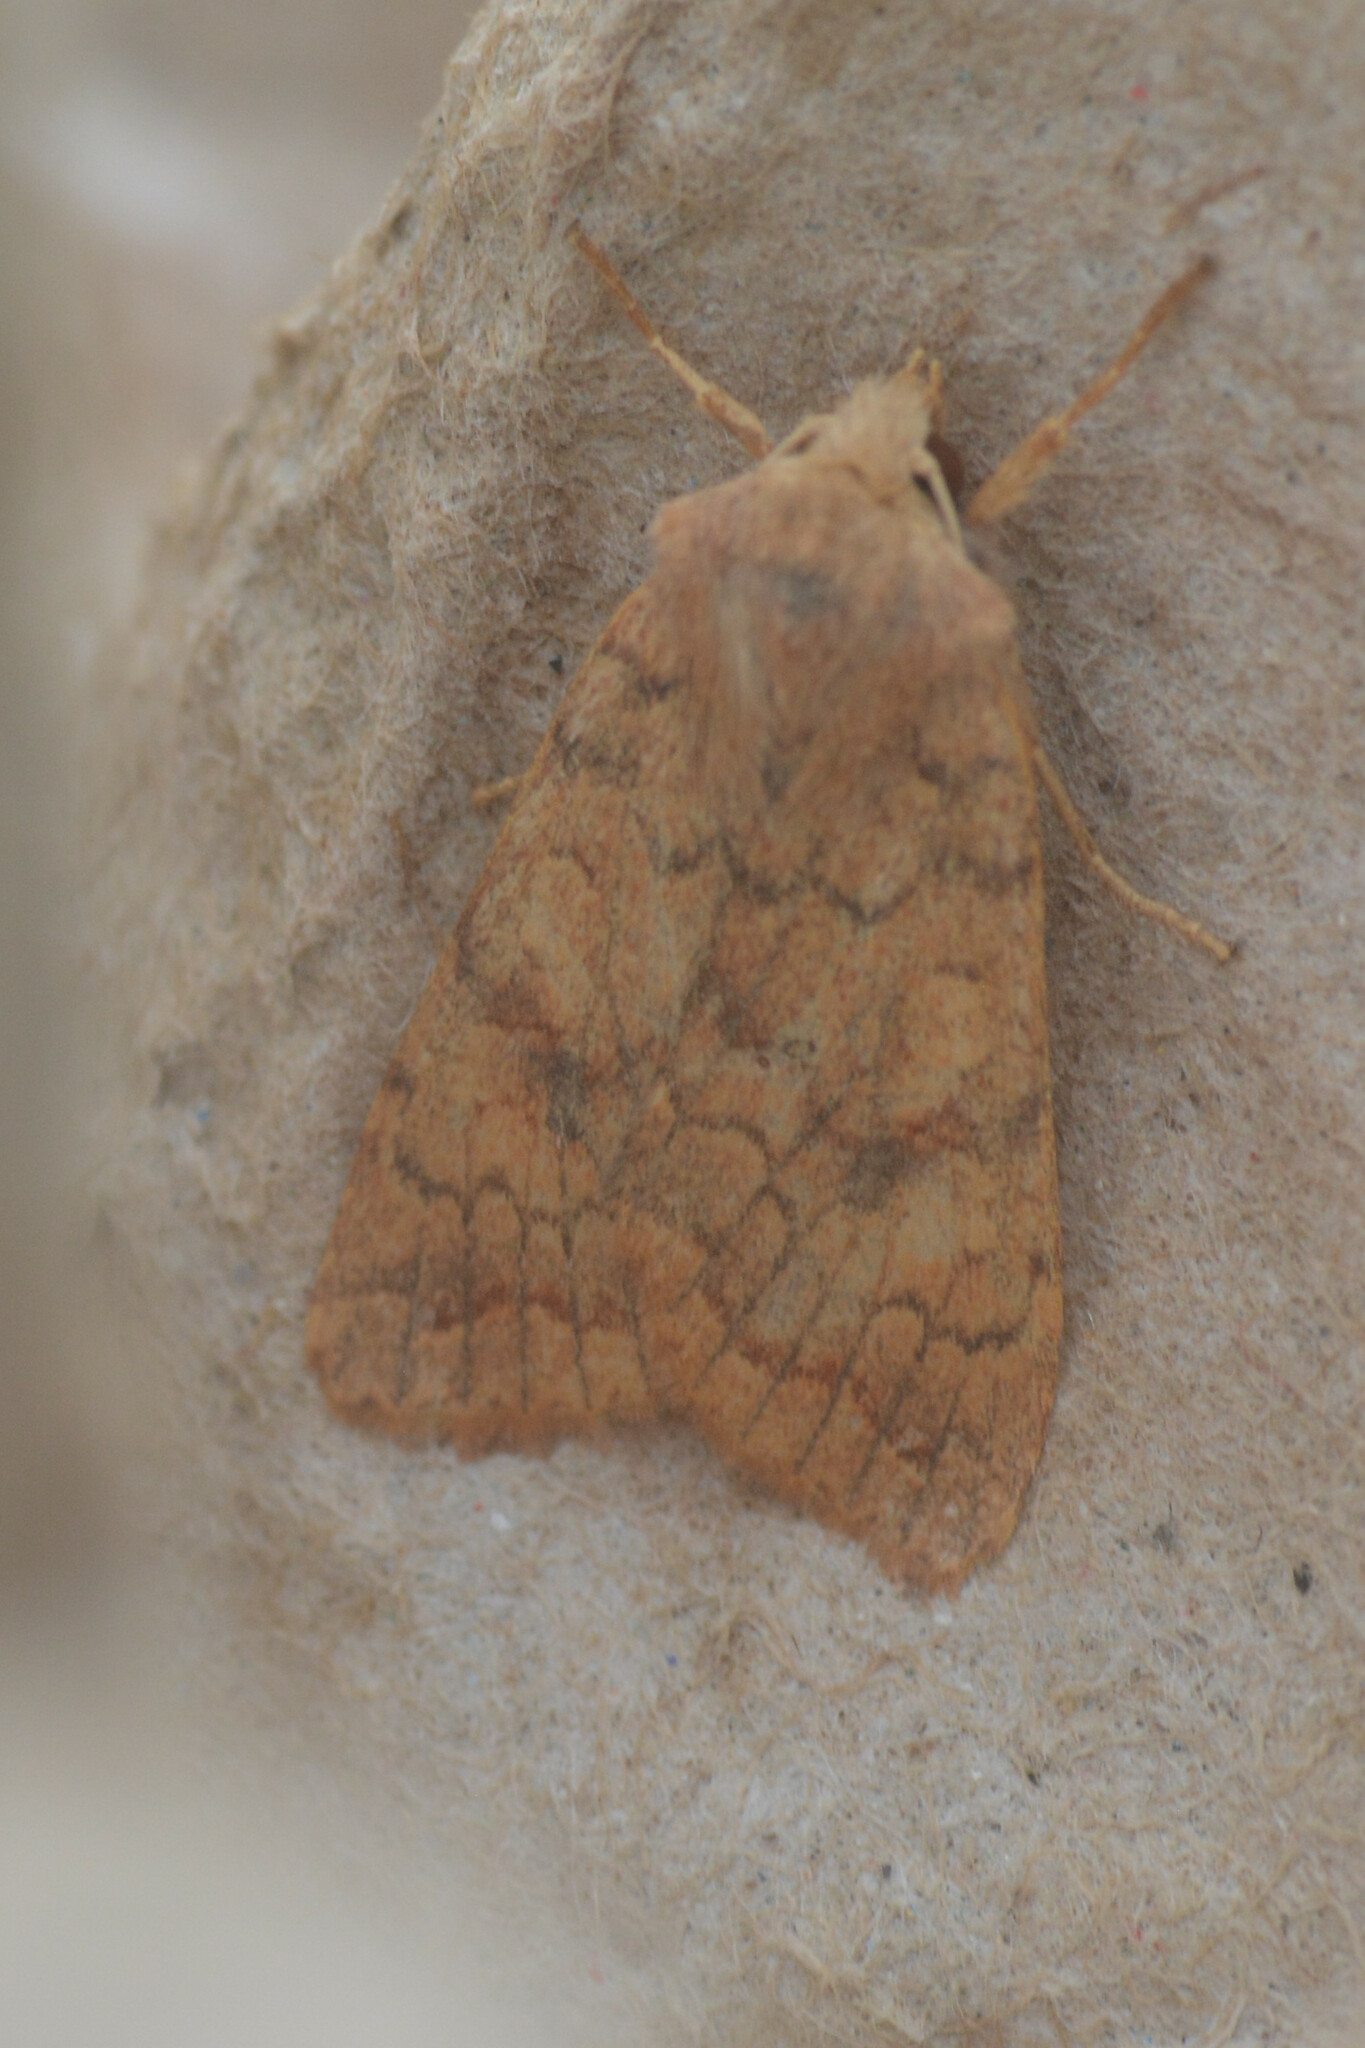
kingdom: Animalia
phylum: Arthropoda
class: Insecta
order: Lepidoptera
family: Noctuidae
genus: Sunira
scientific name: Sunira circellaris
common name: Brick
